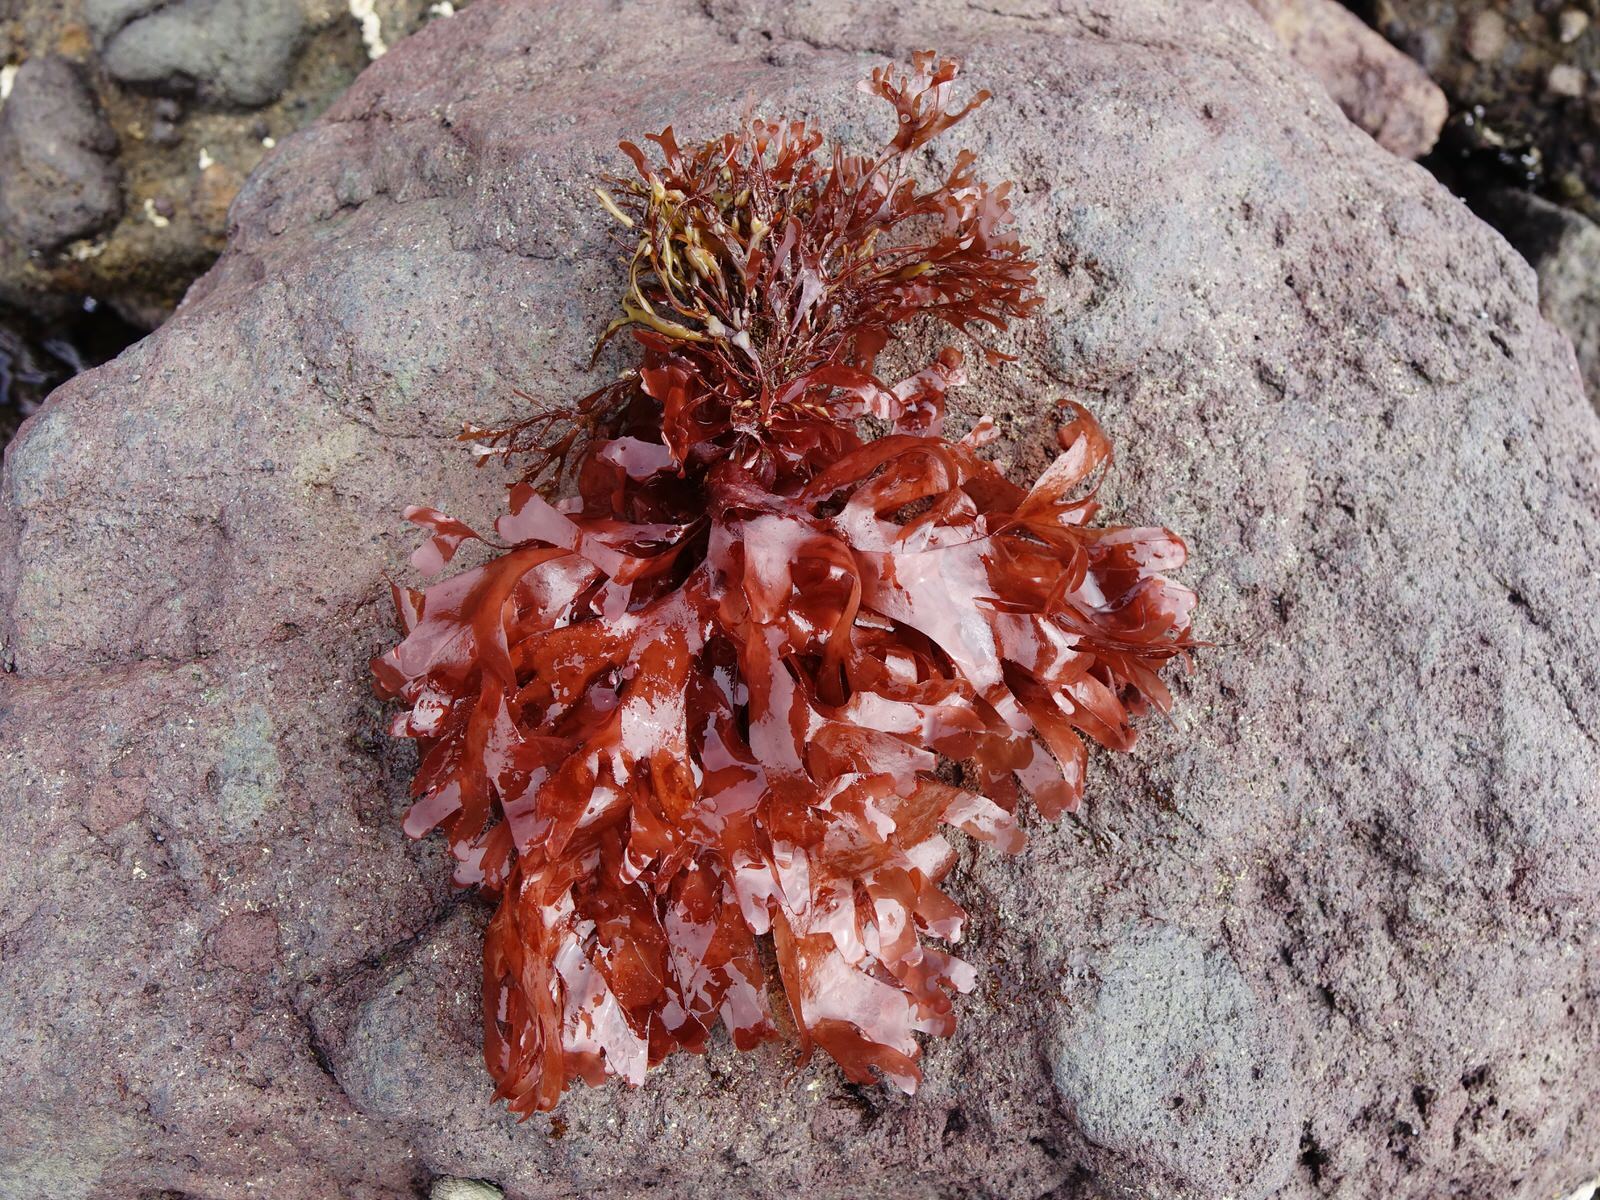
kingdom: Plantae
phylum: Rhodophyta
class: Florideophyceae
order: Gigartinales
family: Phyllophoraceae
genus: Stenogramma
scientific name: Stenogramma interruptum
